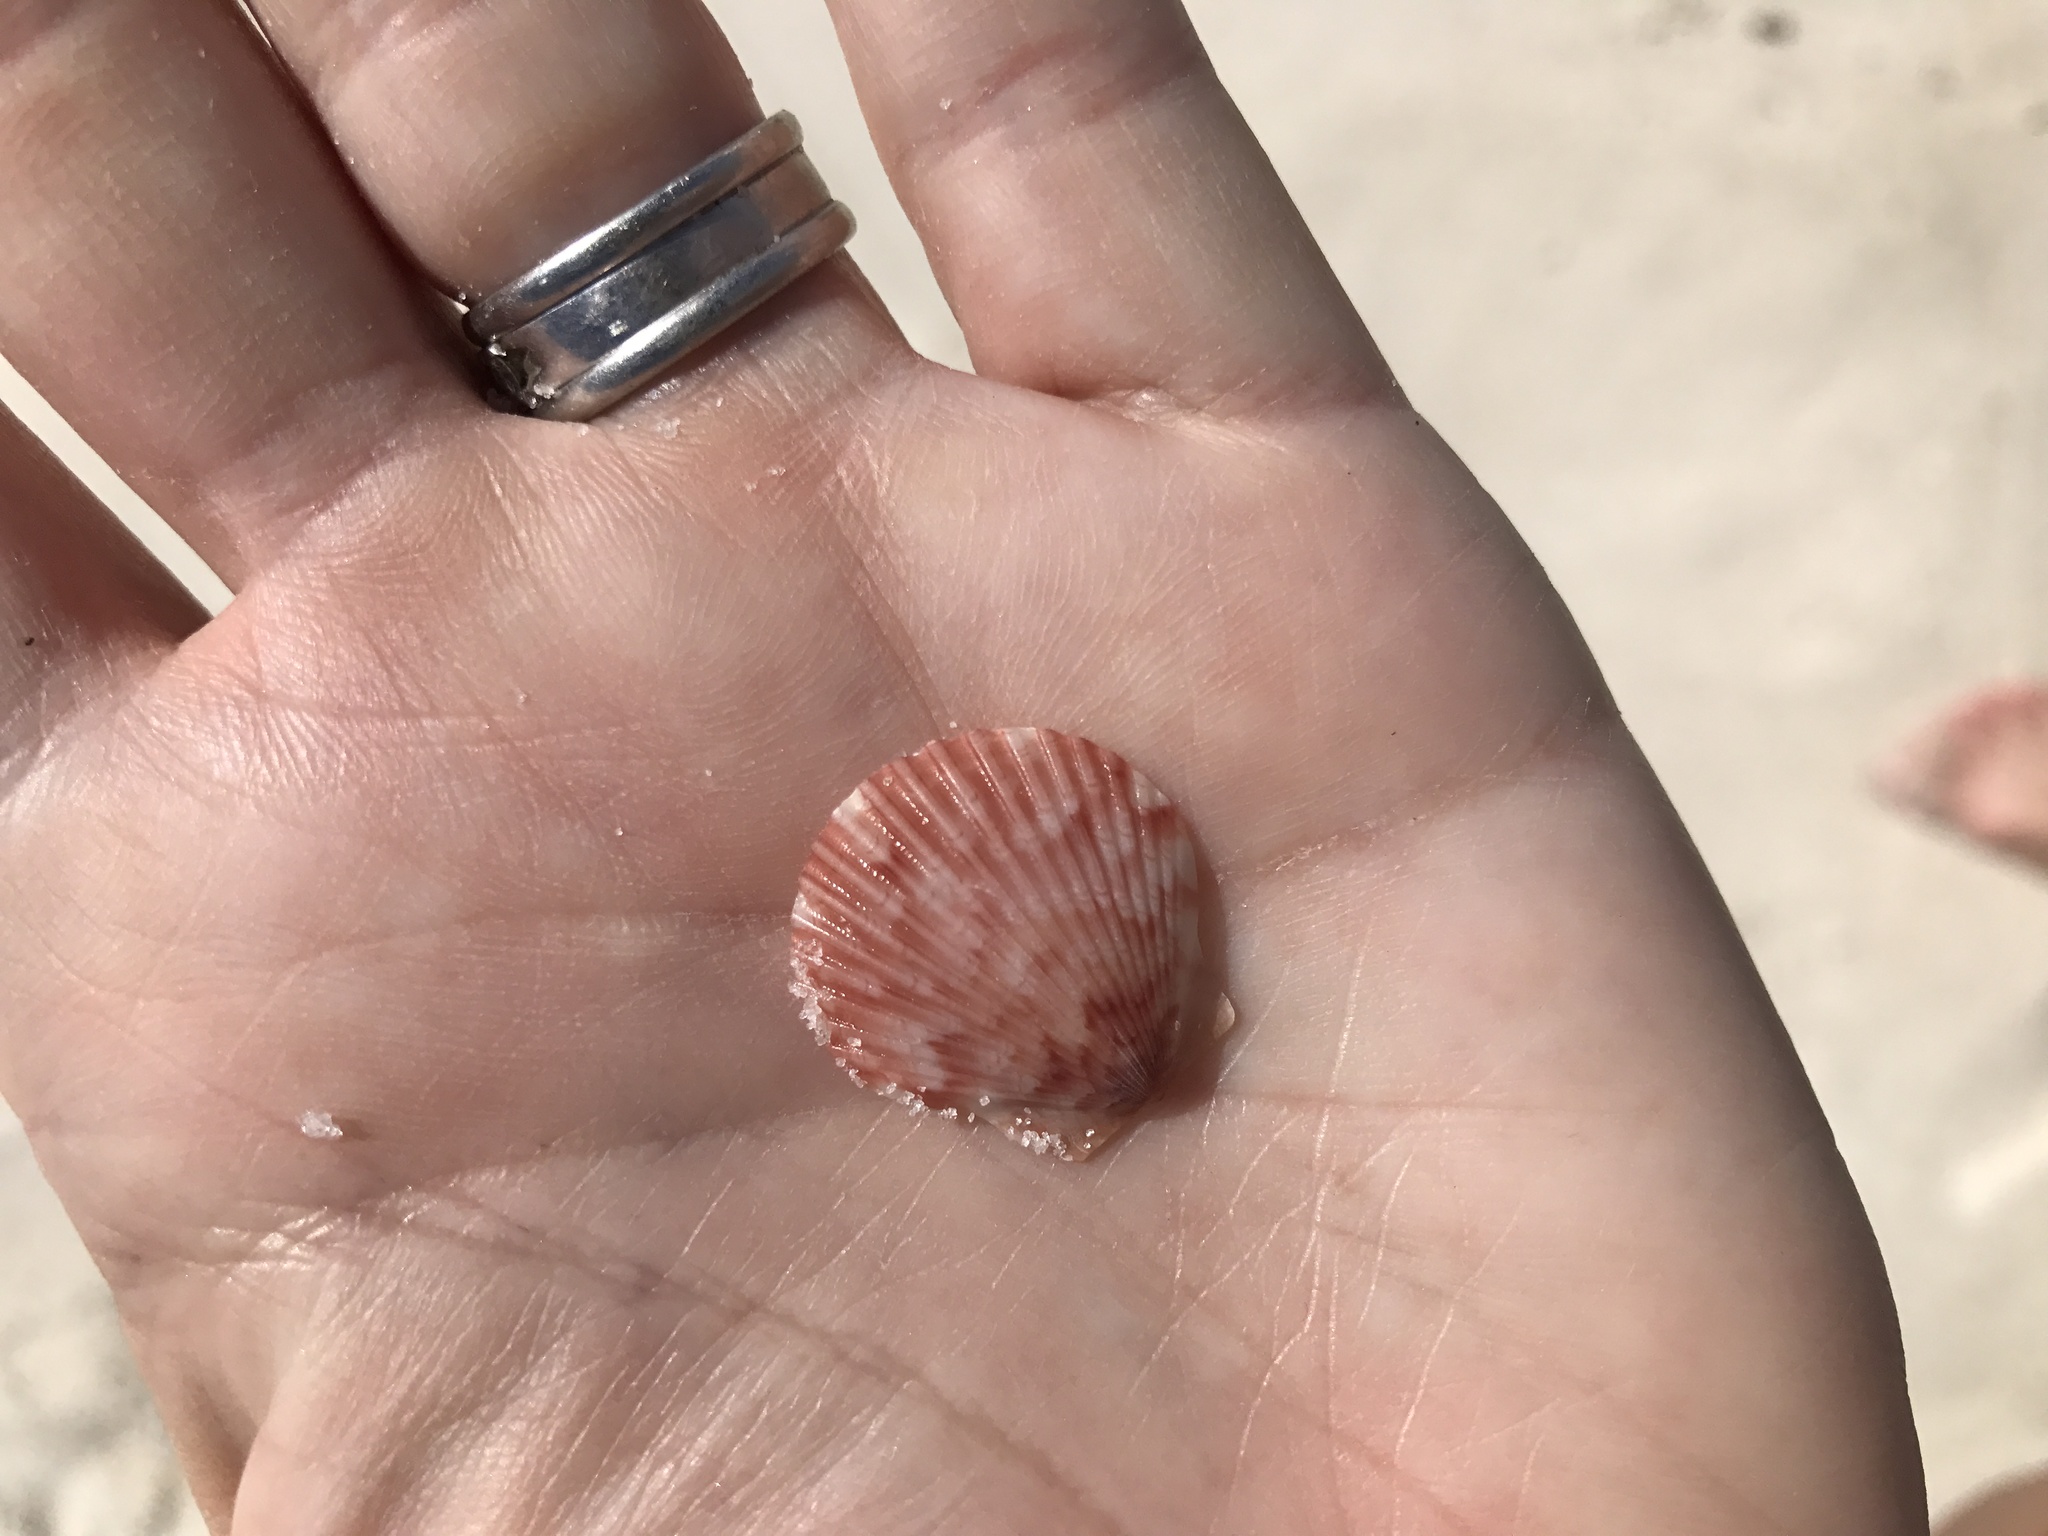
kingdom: Animalia
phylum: Mollusca
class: Bivalvia
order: Pectinida
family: Pectinidae
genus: Argopecten
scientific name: Argopecten gibbus
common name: Atlantic calico scallop
